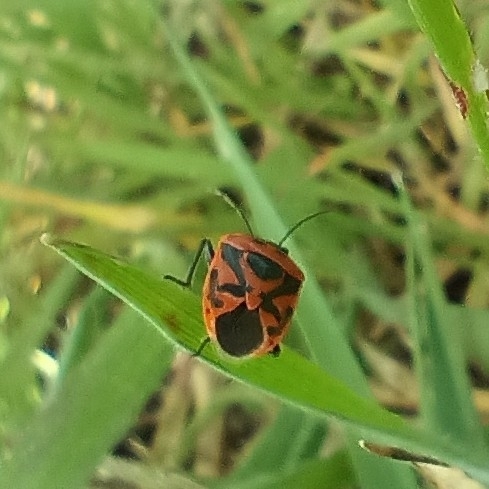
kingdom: Animalia
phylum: Arthropoda
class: Insecta
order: Hemiptera
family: Pentatomidae
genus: Eurydema
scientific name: Eurydema ornata
